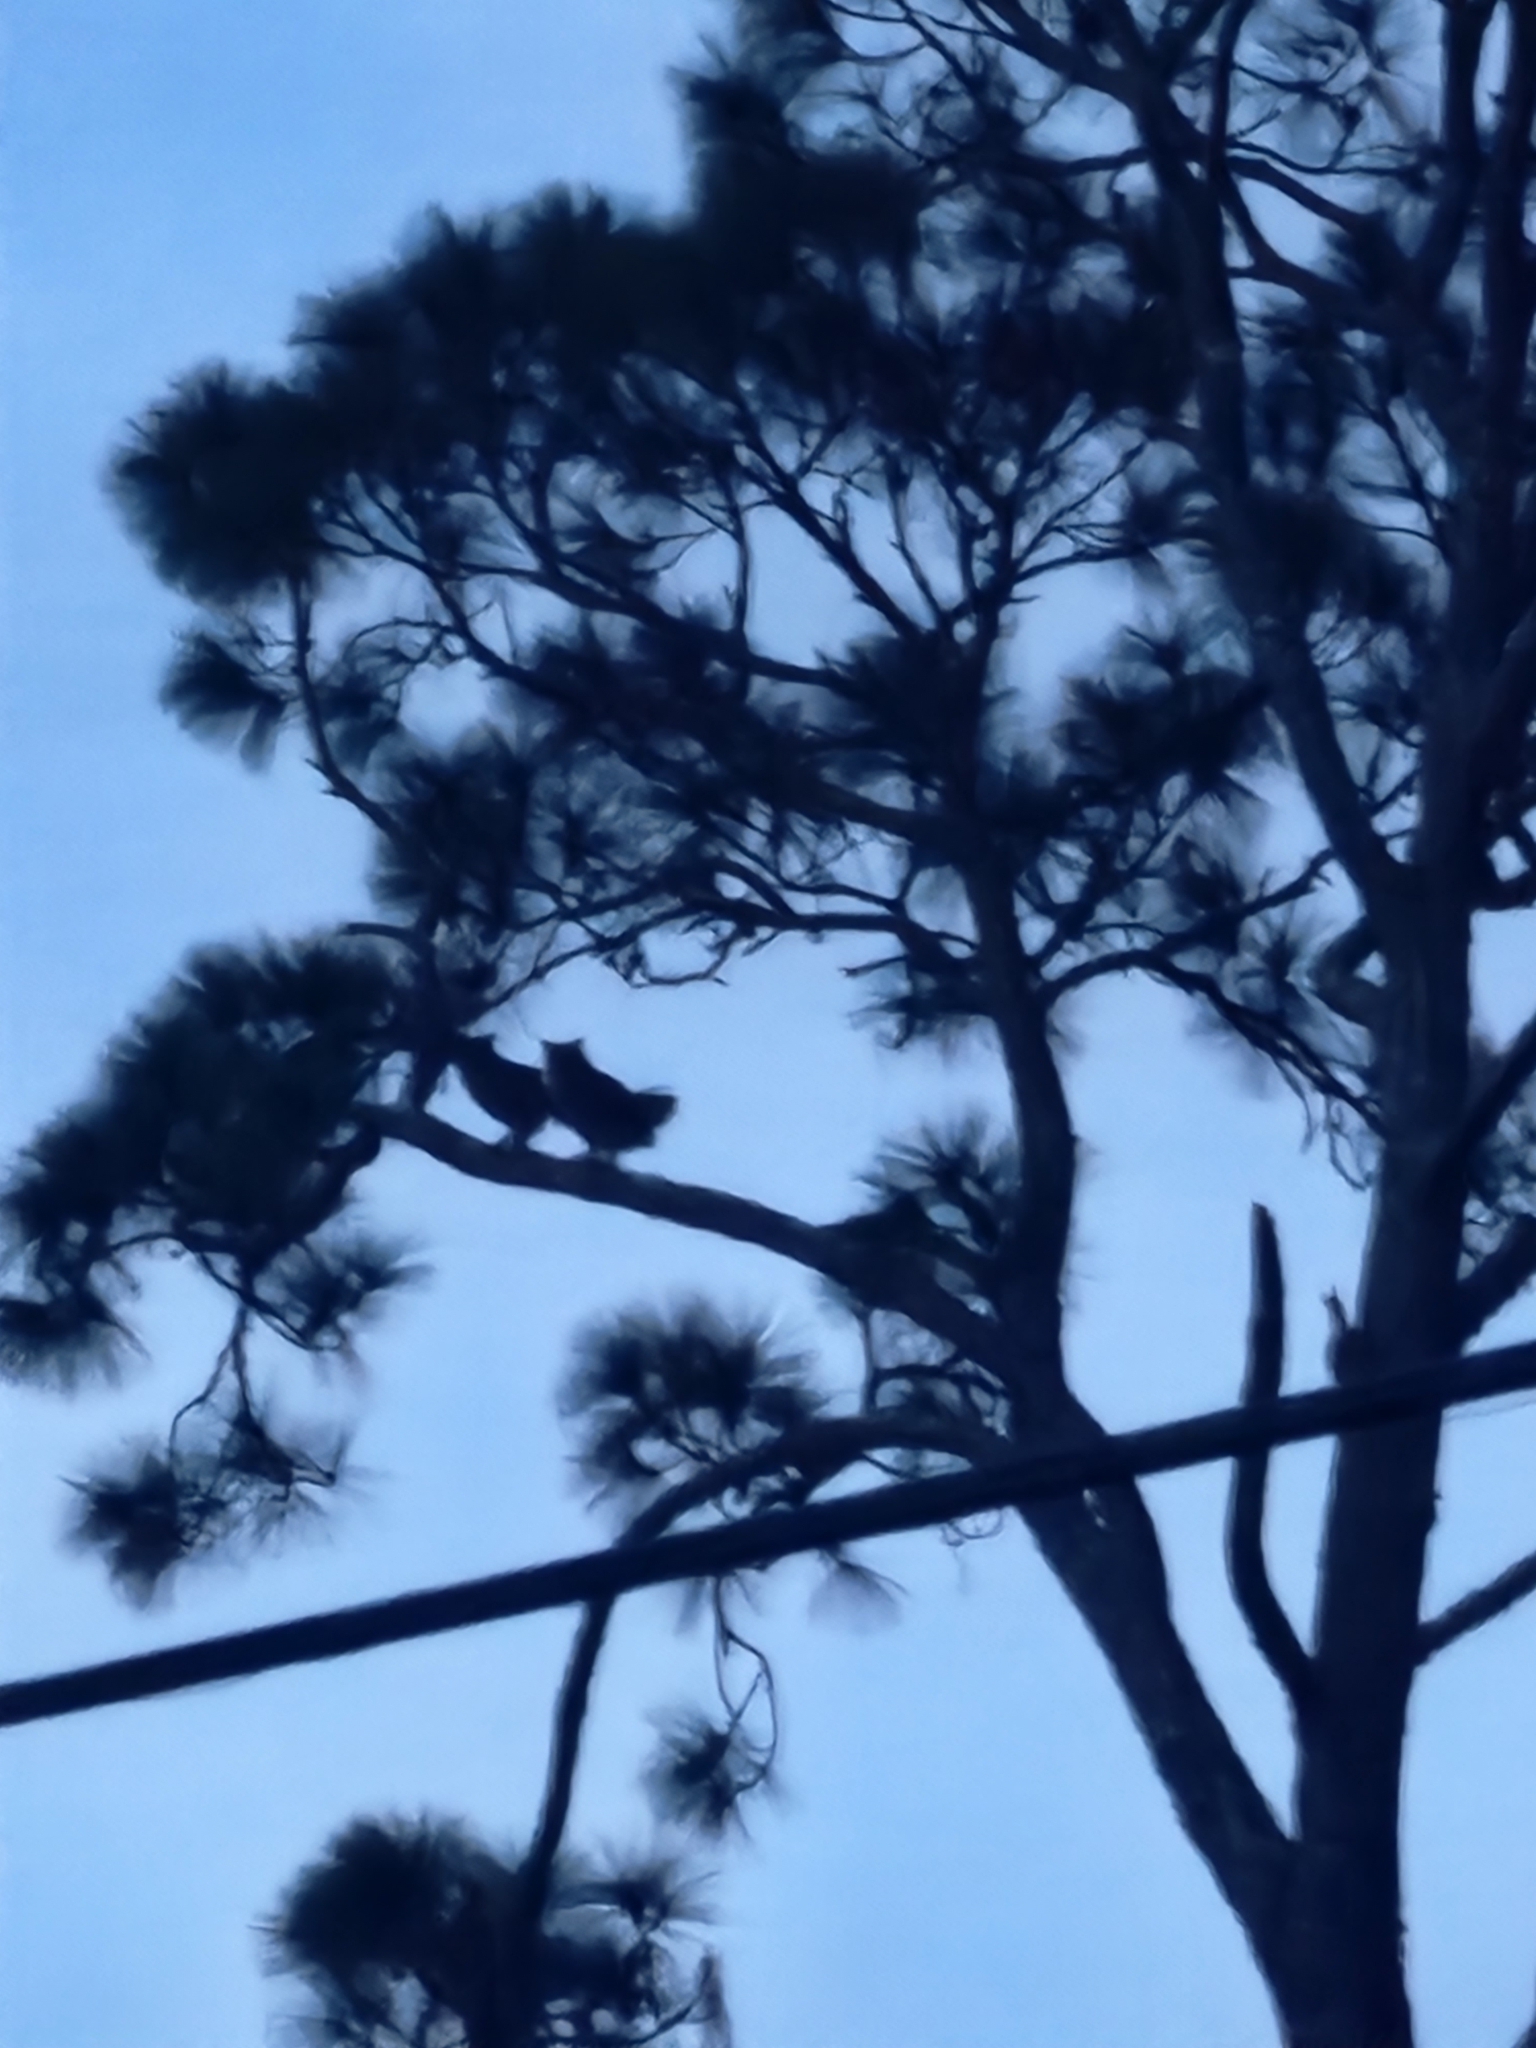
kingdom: Animalia
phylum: Chordata
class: Aves
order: Strigiformes
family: Strigidae
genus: Bubo
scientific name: Bubo virginianus
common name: Great horned owl
